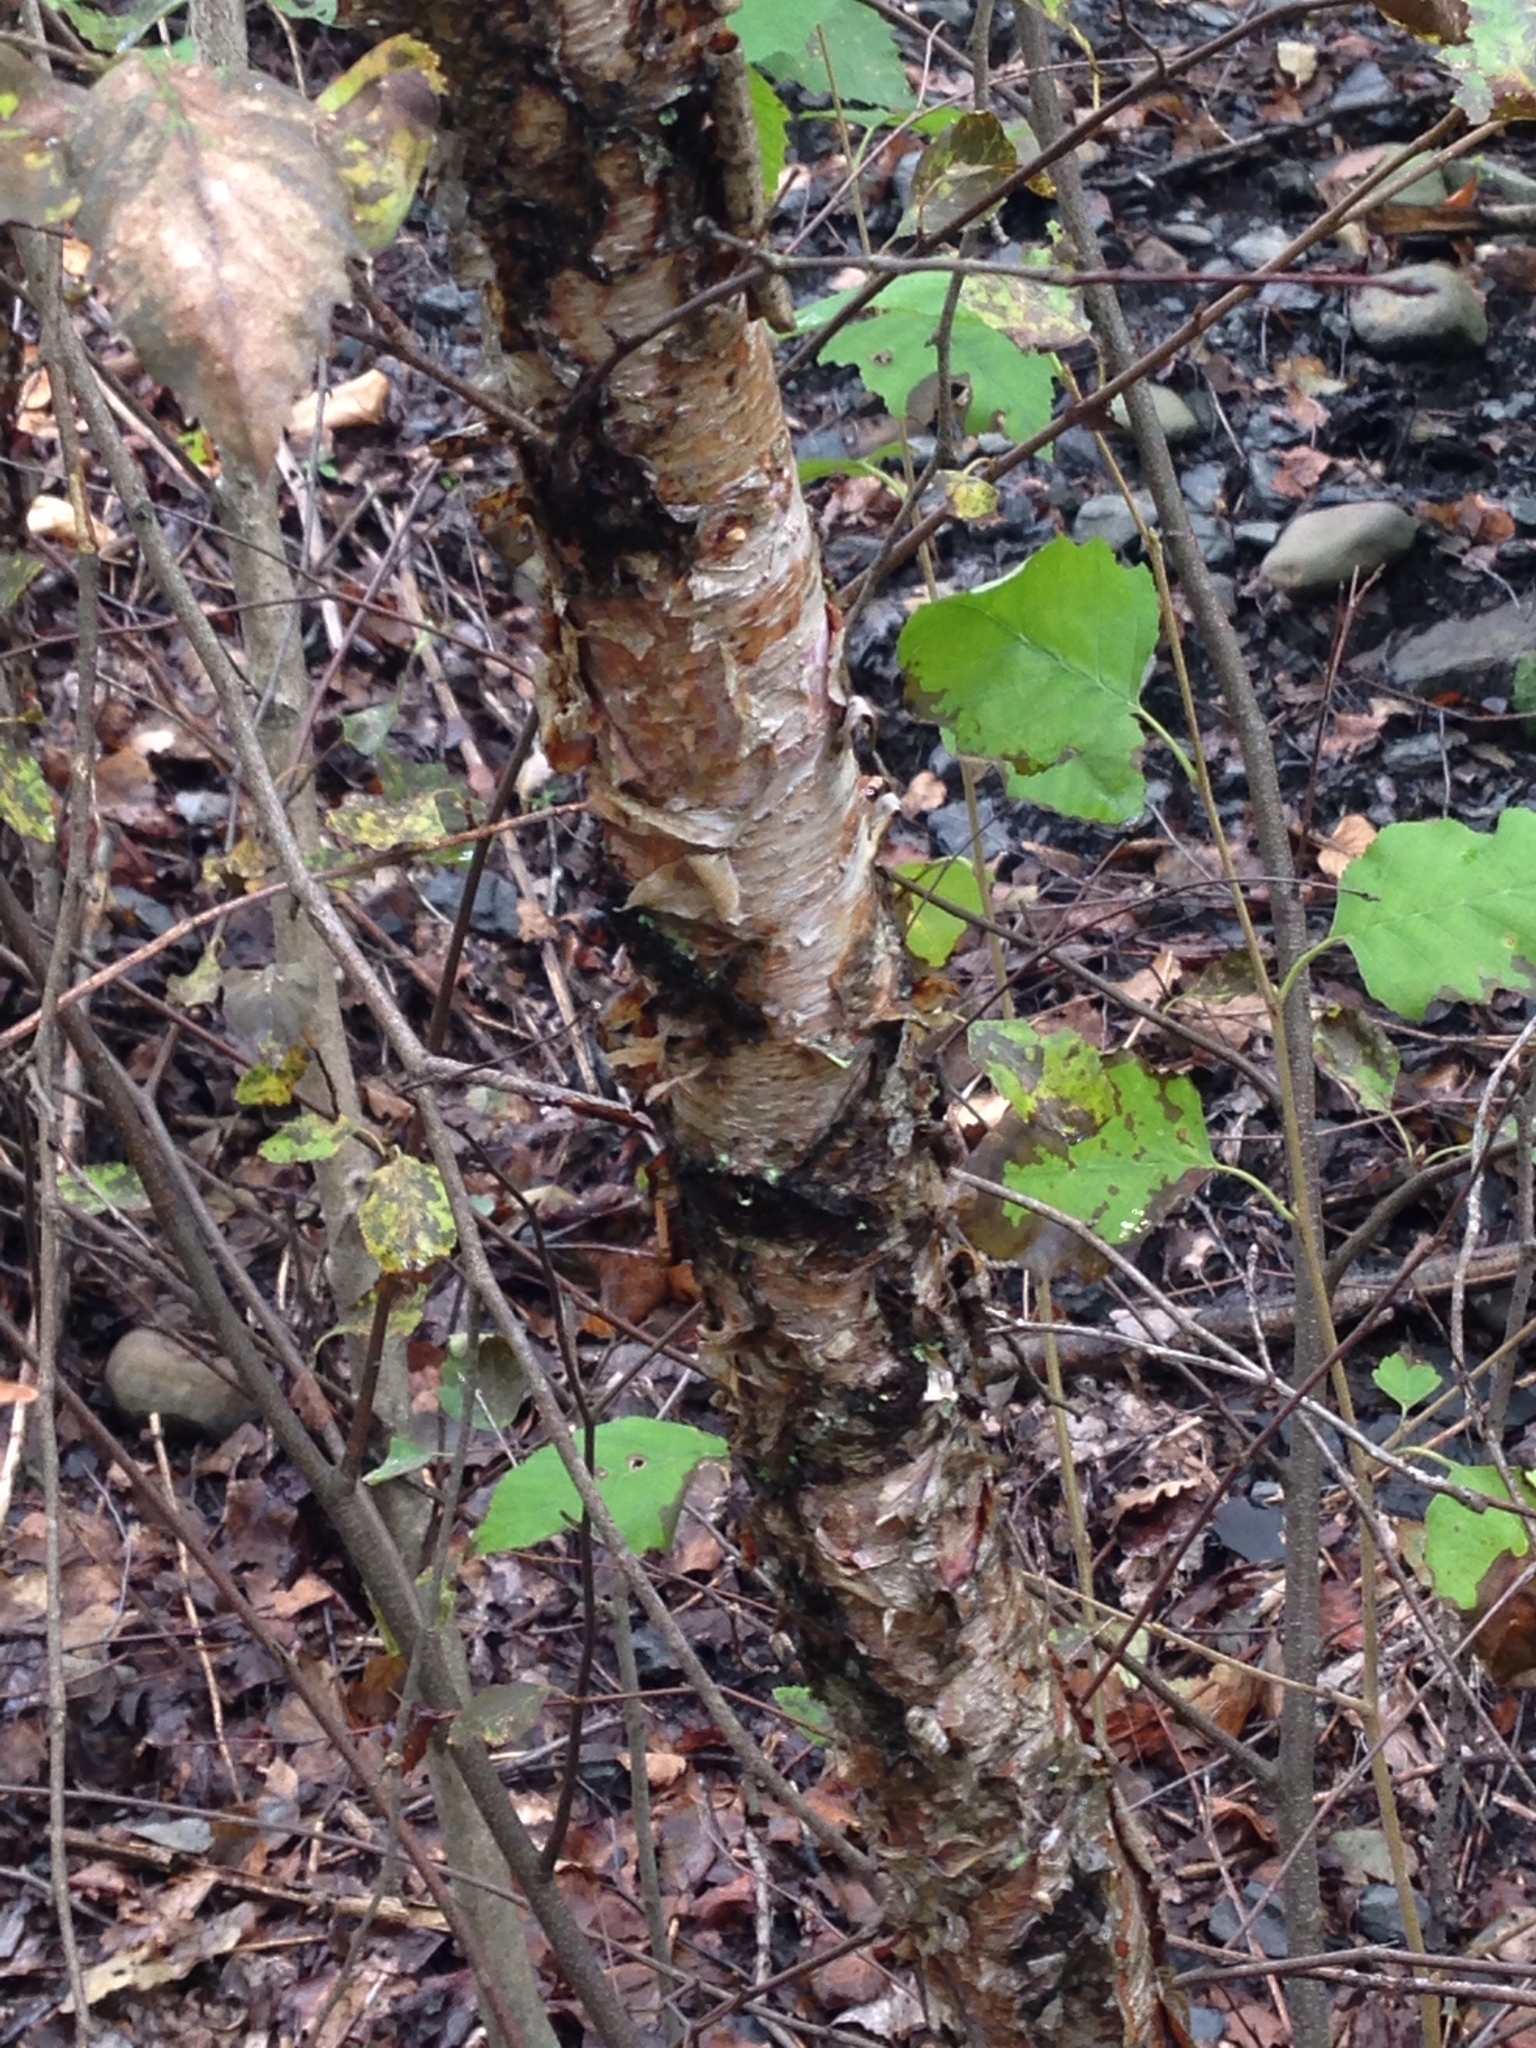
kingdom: Plantae
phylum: Tracheophyta
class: Magnoliopsida
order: Fagales
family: Betulaceae
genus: Betula
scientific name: Betula nigra
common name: Black birch
